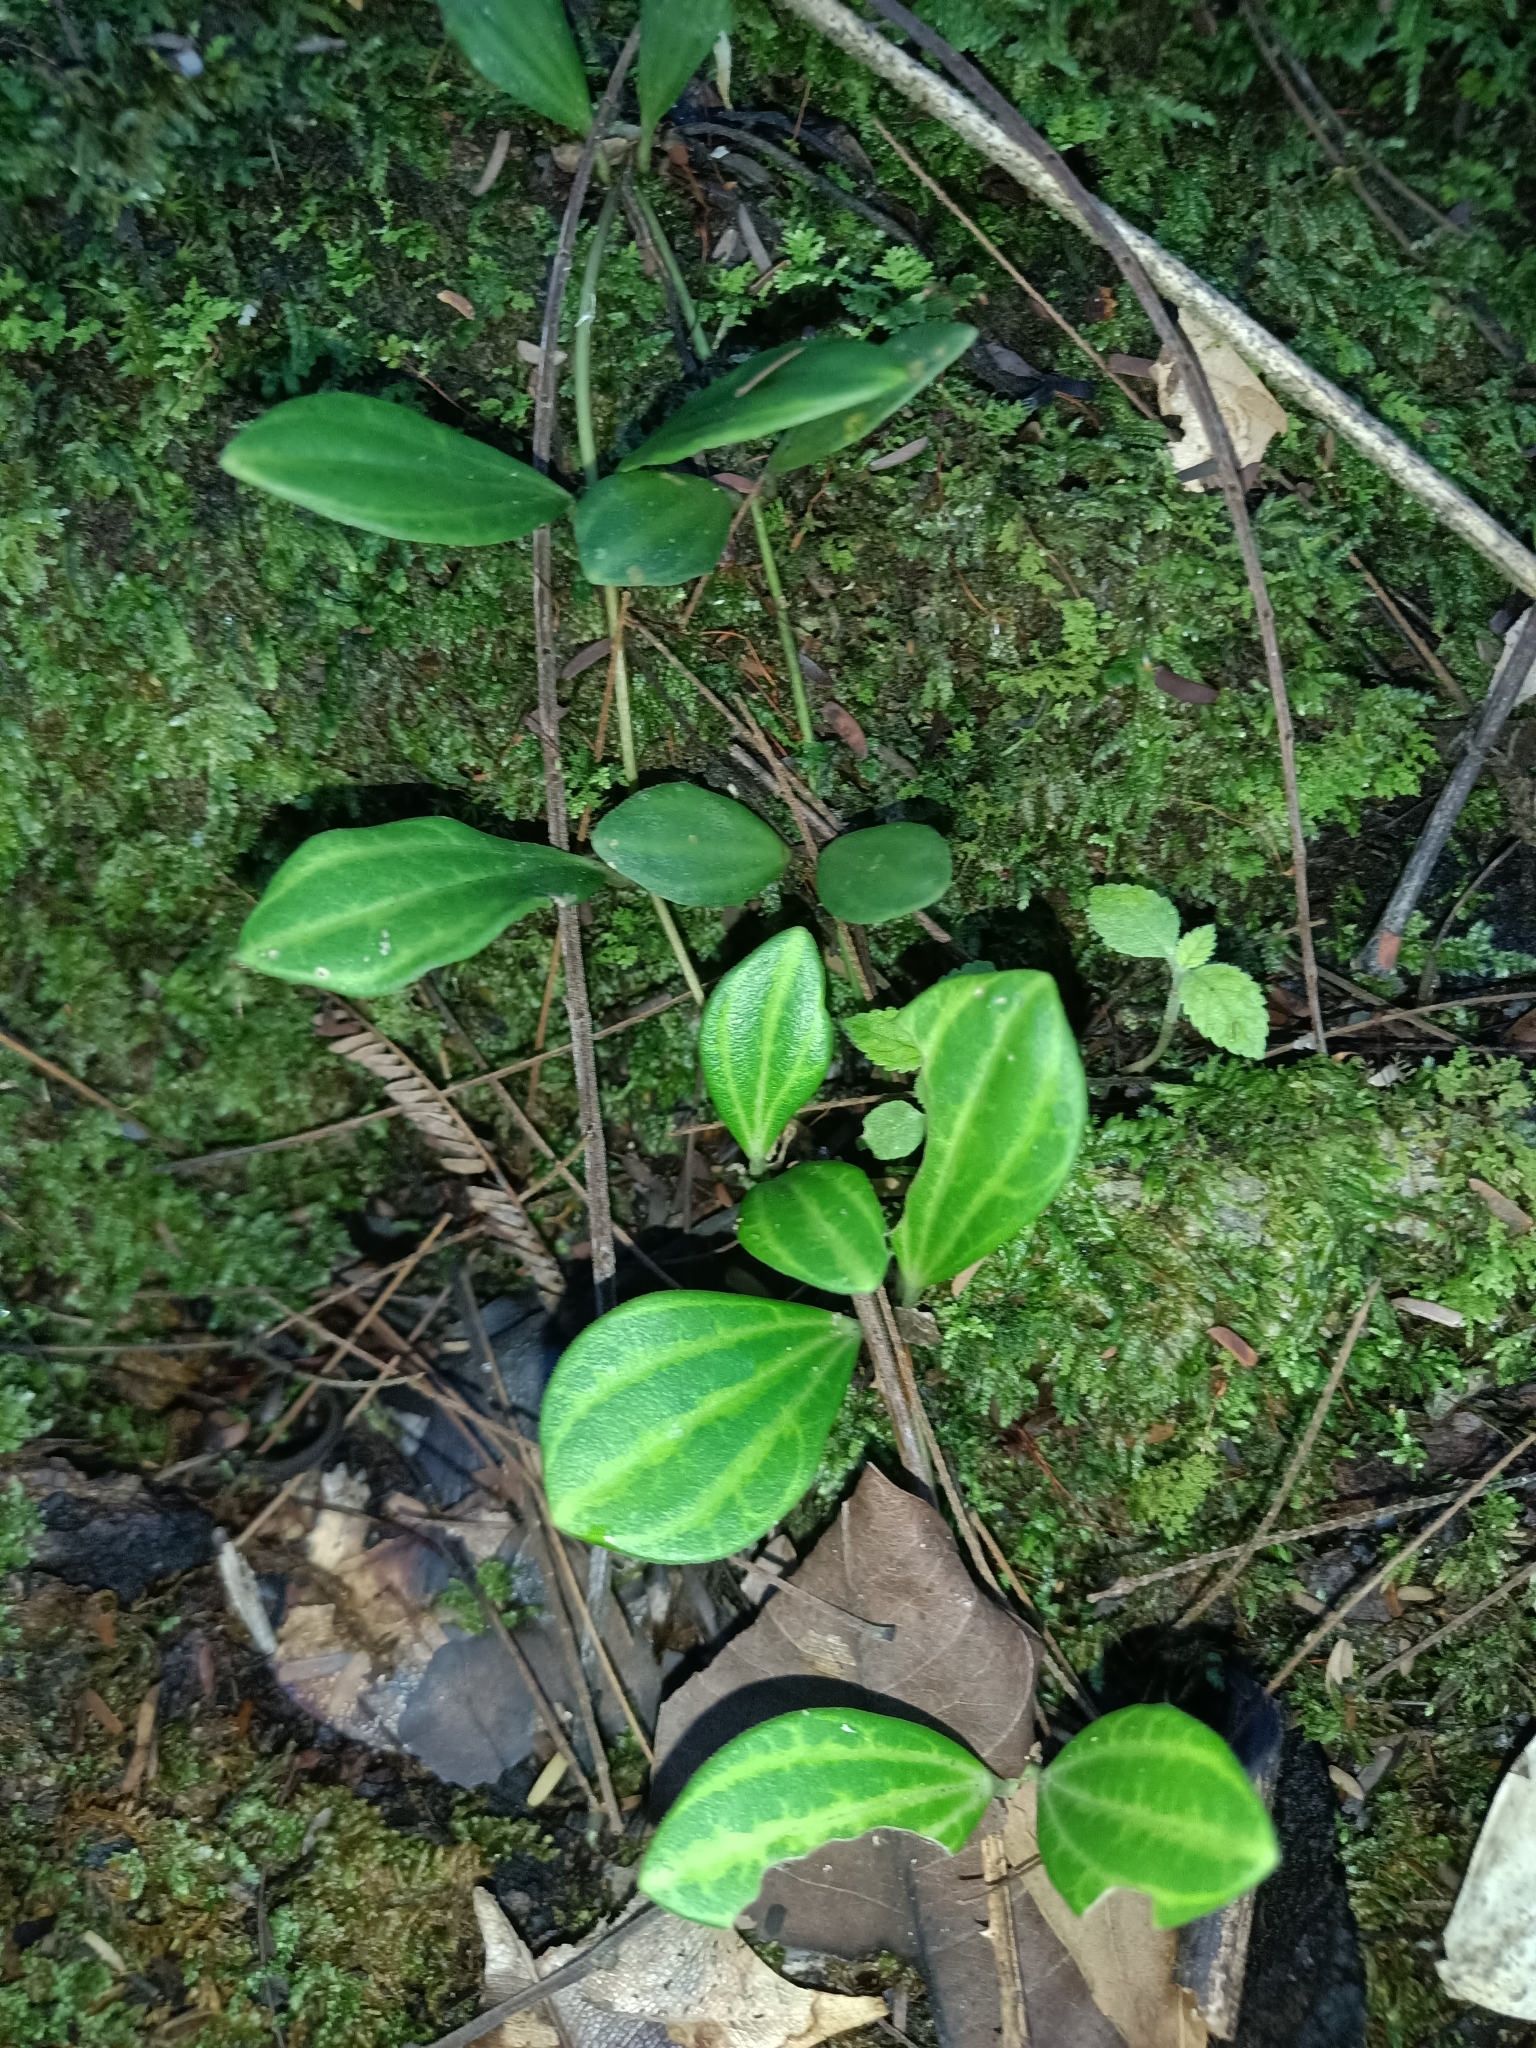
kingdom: Plantae
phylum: Tracheophyta
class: Magnoliopsida
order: Piperales
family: Piperaceae
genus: Peperomia
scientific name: Peperomia quadrangularis
